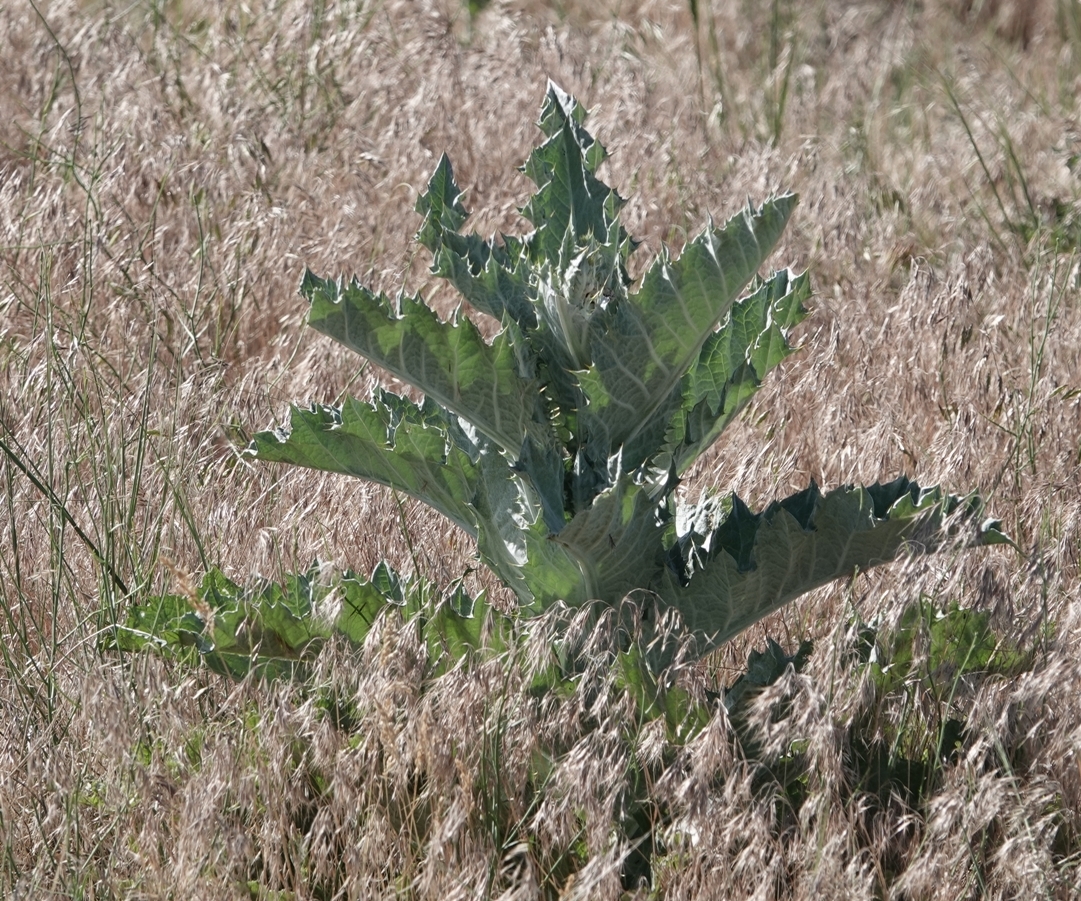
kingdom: Plantae
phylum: Tracheophyta
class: Magnoliopsida
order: Asterales
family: Asteraceae
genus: Onopordum
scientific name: Onopordum acanthium
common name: Scotch thistle
